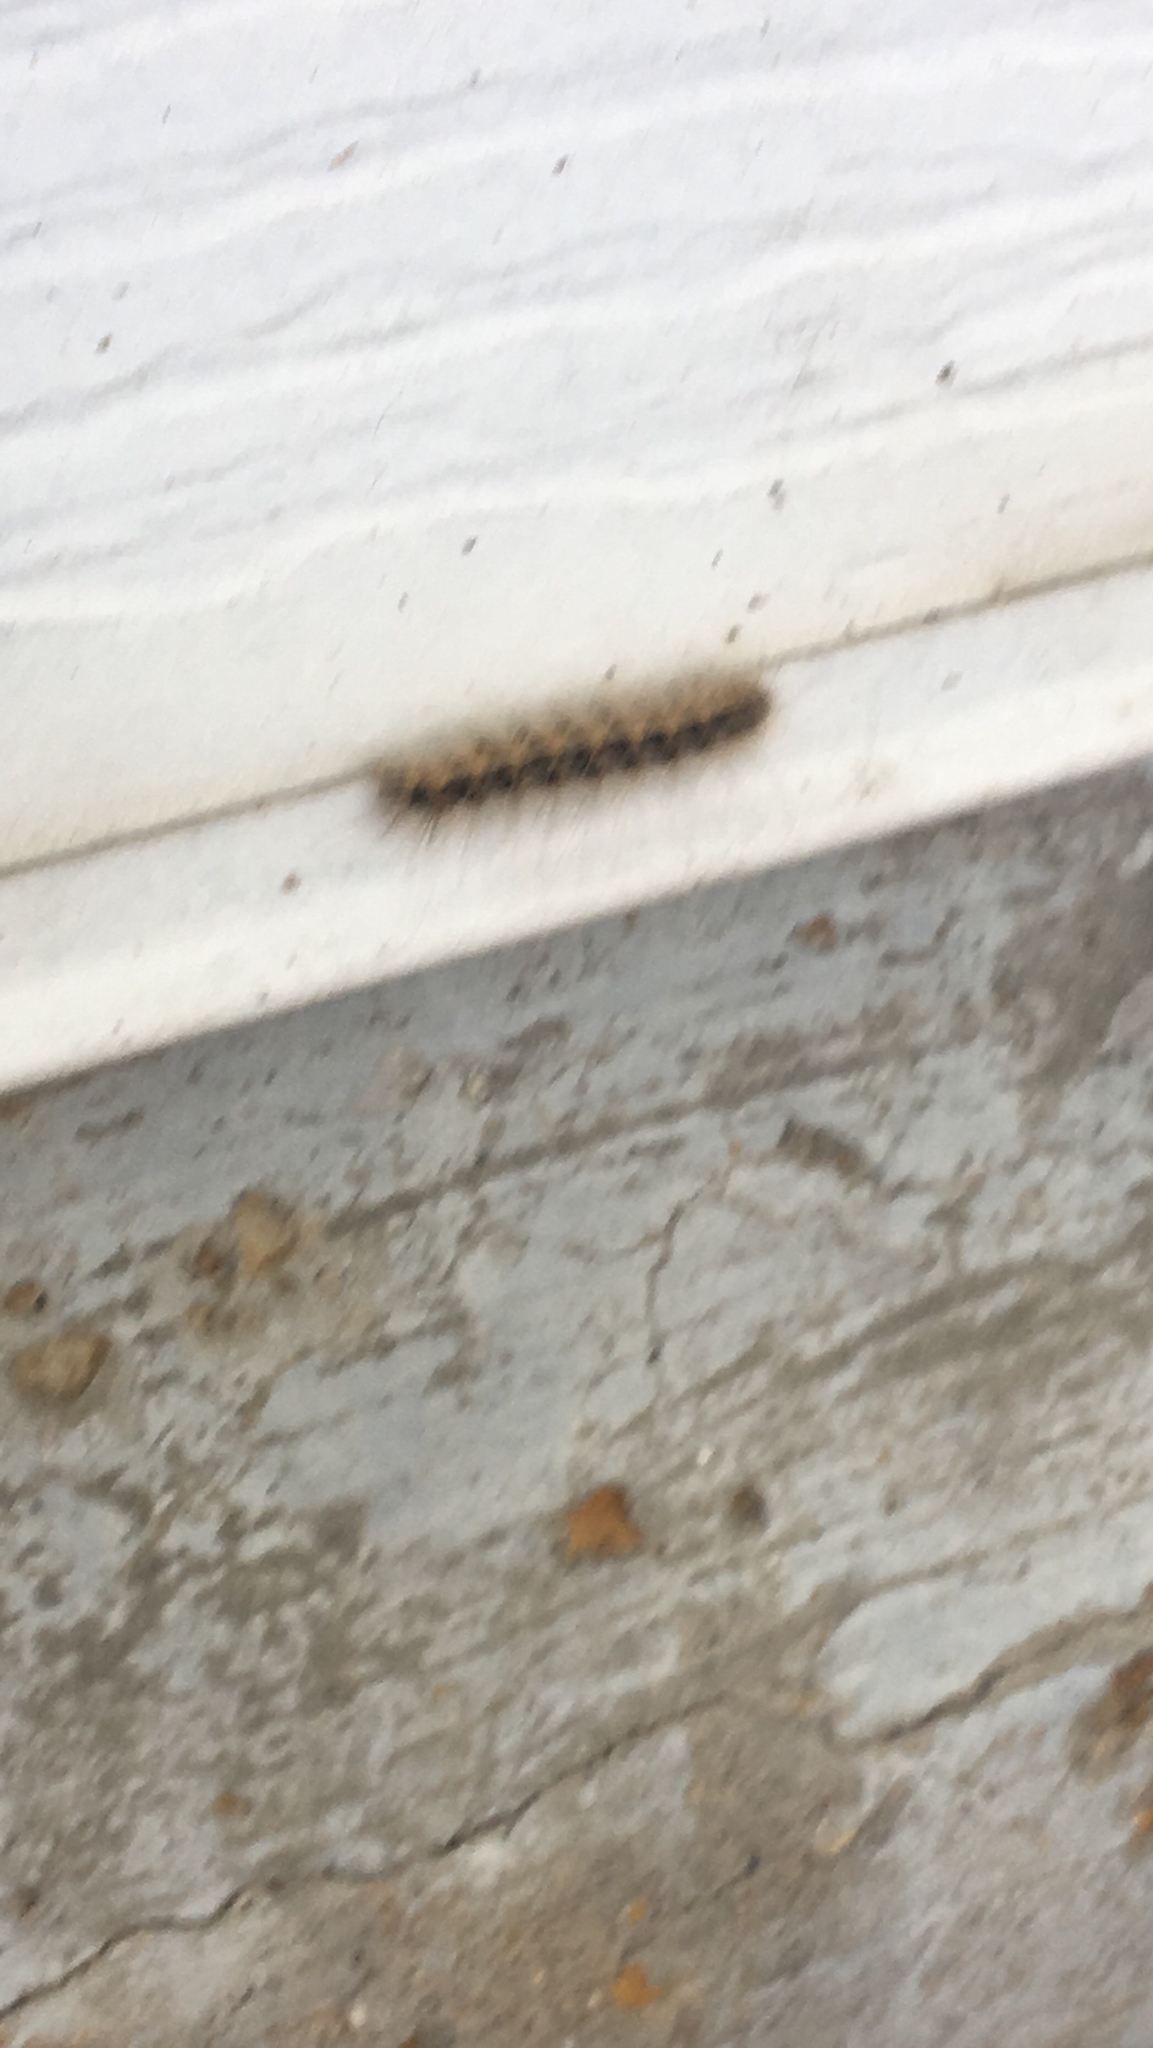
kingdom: Animalia
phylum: Arthropoda
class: Insecta
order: Lepidoptera
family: Erebidae
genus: Hyphantria
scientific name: Hyphantria cunea
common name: American white moth
